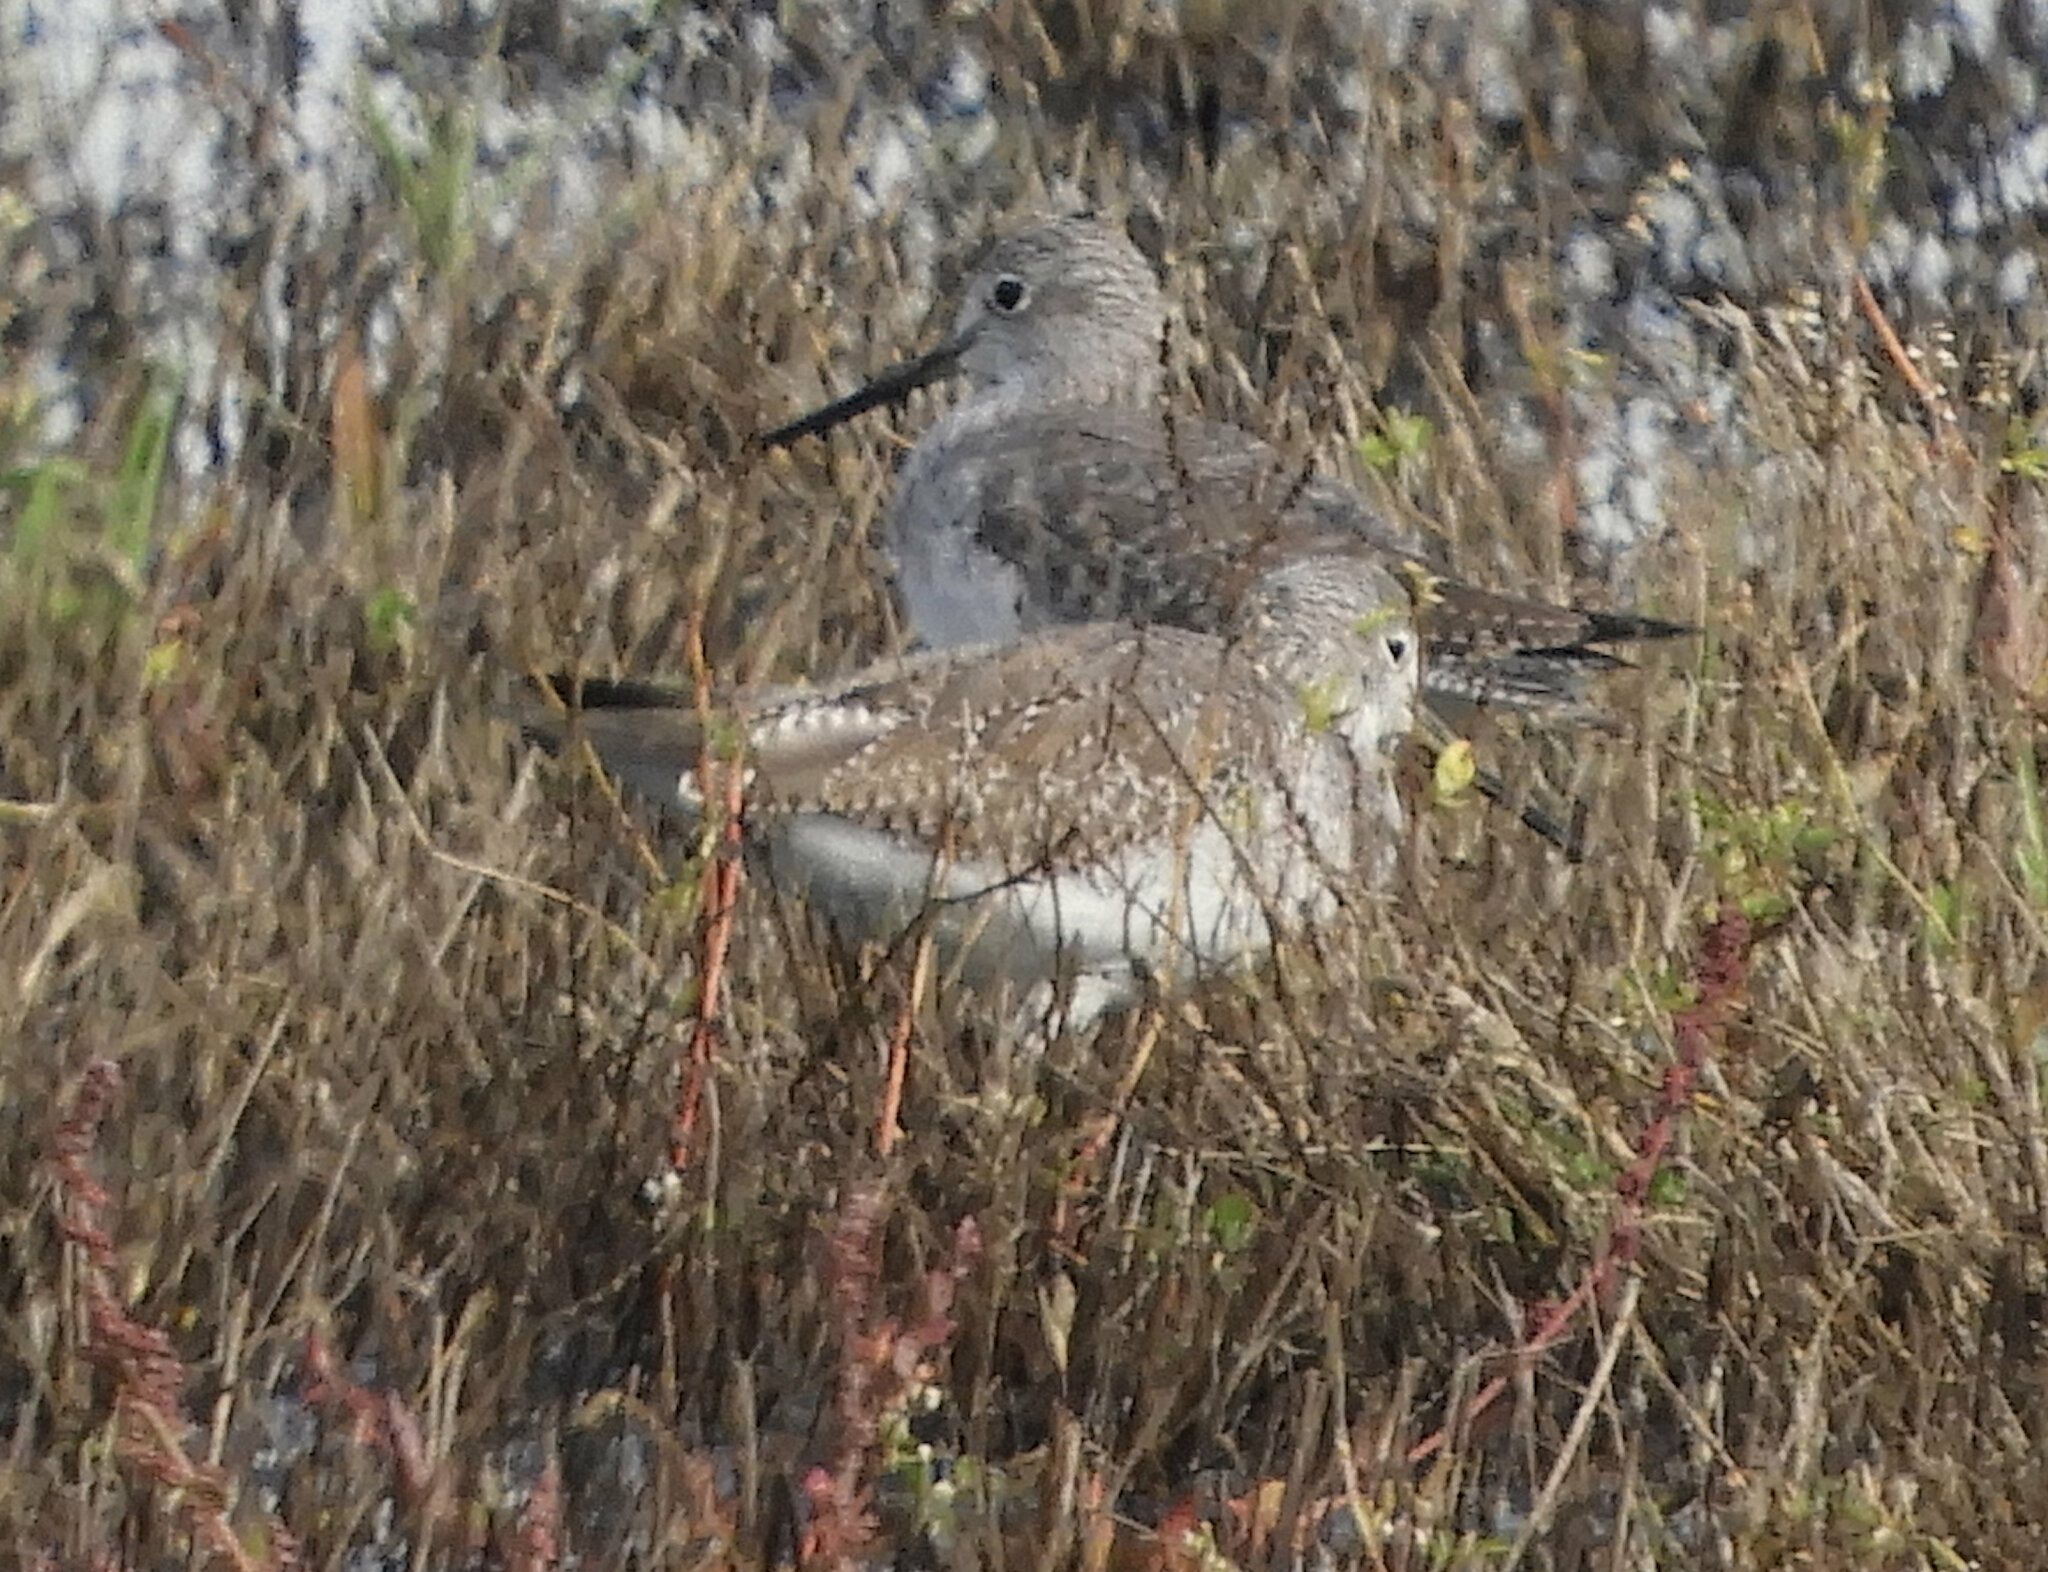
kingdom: Animalia
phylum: Chordata
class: Aves
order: Charadriiformes
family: Scolopacidae
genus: Tringa
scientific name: Tringa melanoleuca
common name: Greater yellowlegs
